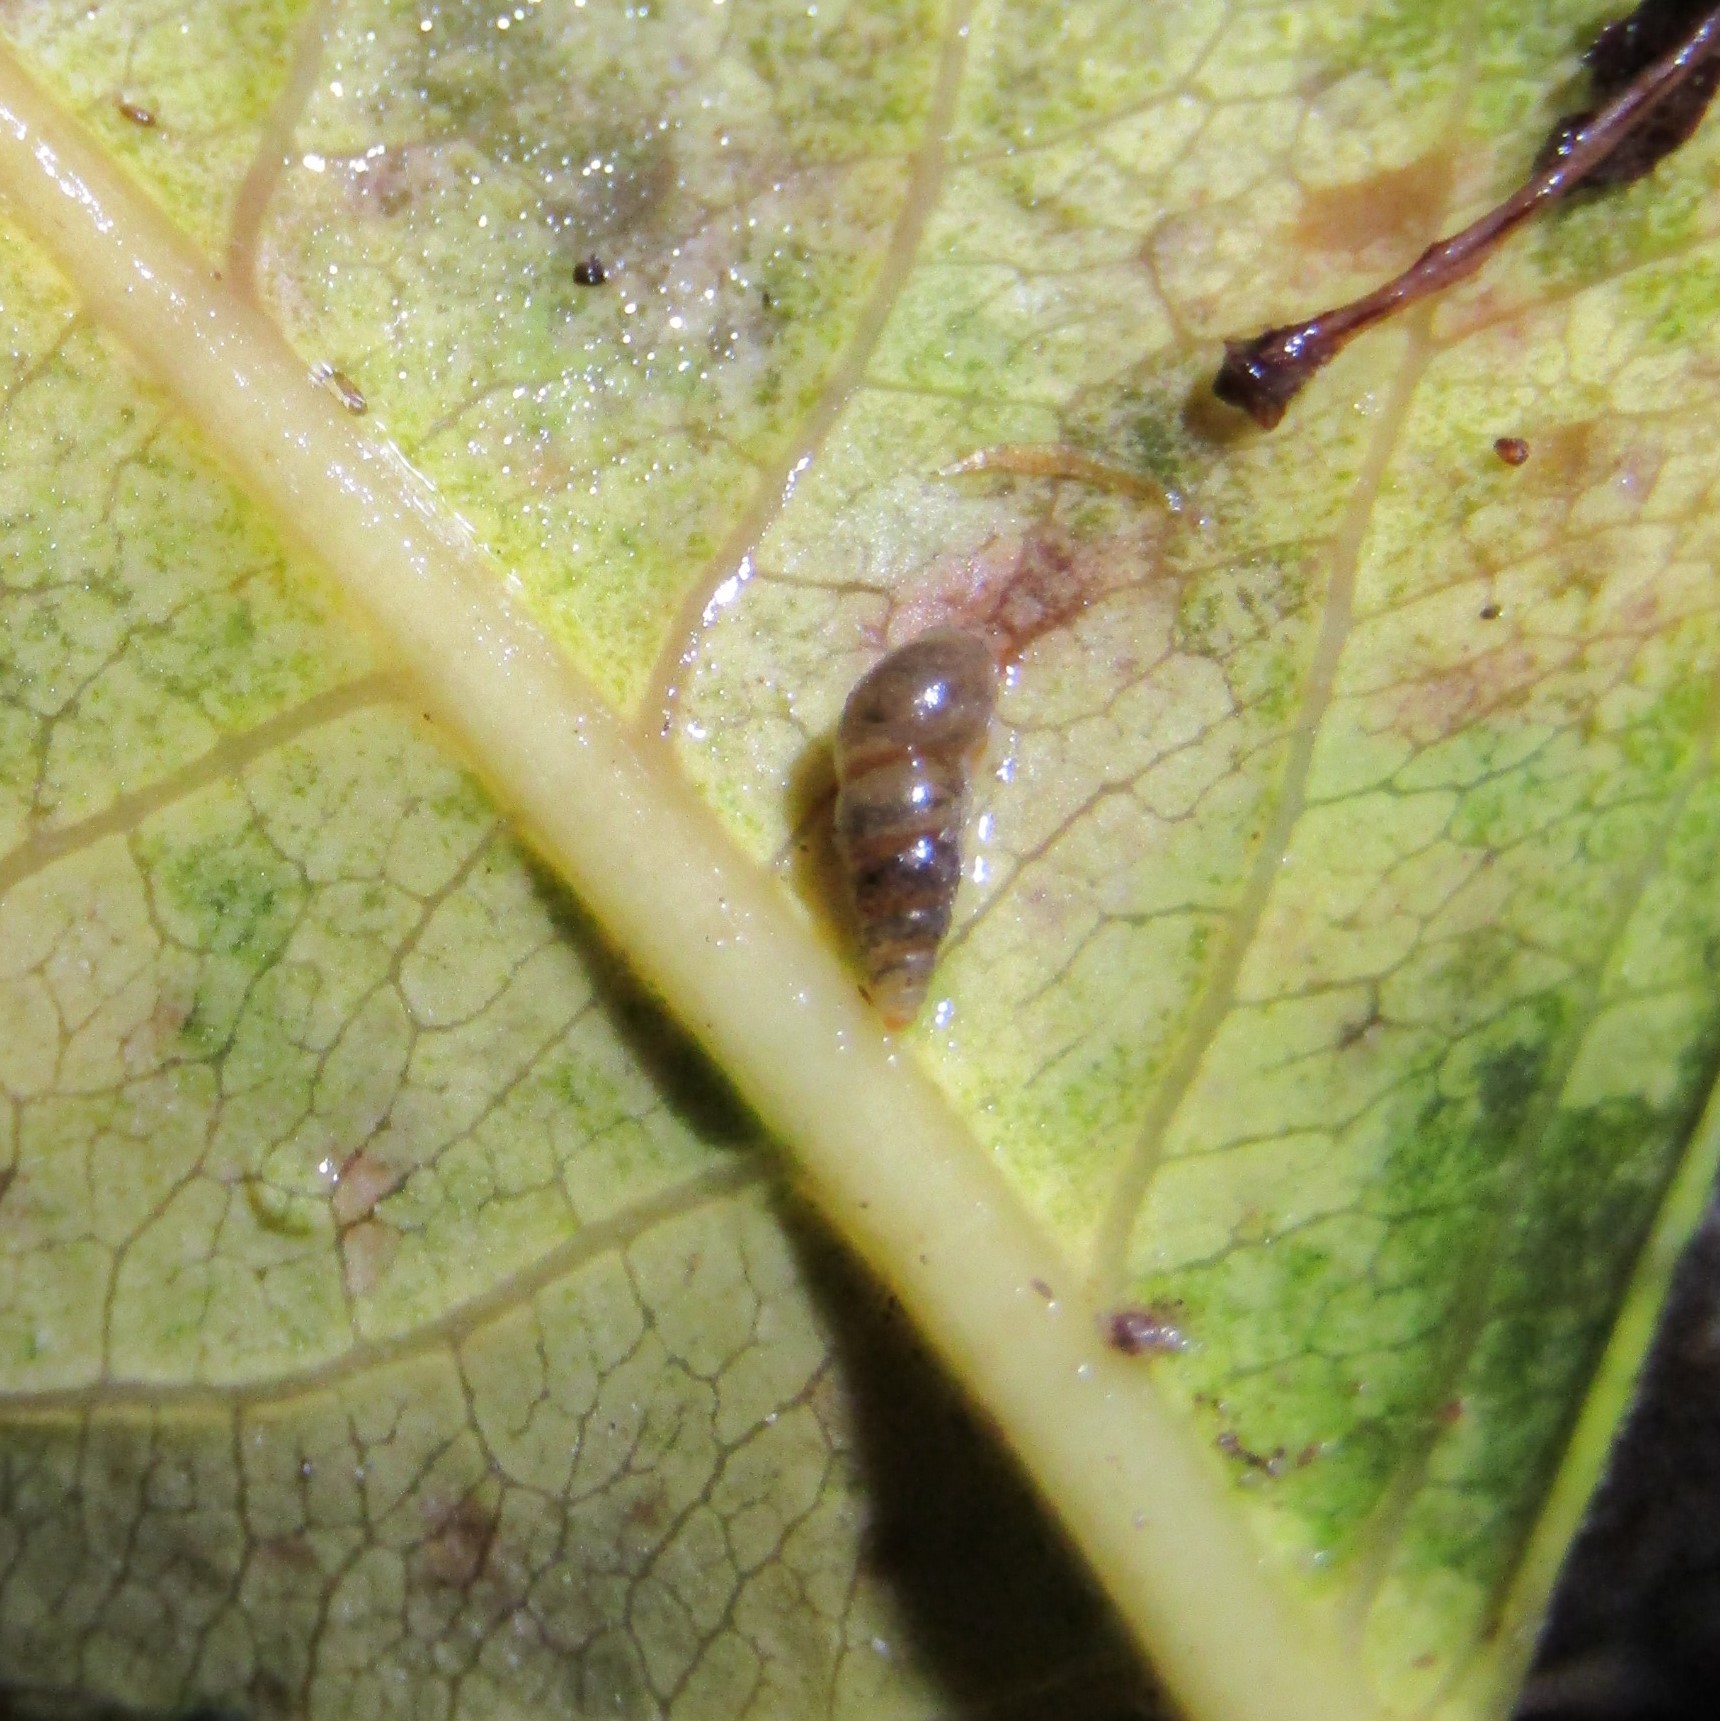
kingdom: Animalia
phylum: Mollusca
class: Gastropoda
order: Littorinimorpha
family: Tateidae
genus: Potamopyrgus
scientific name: Potamopyrgus oppidanus
